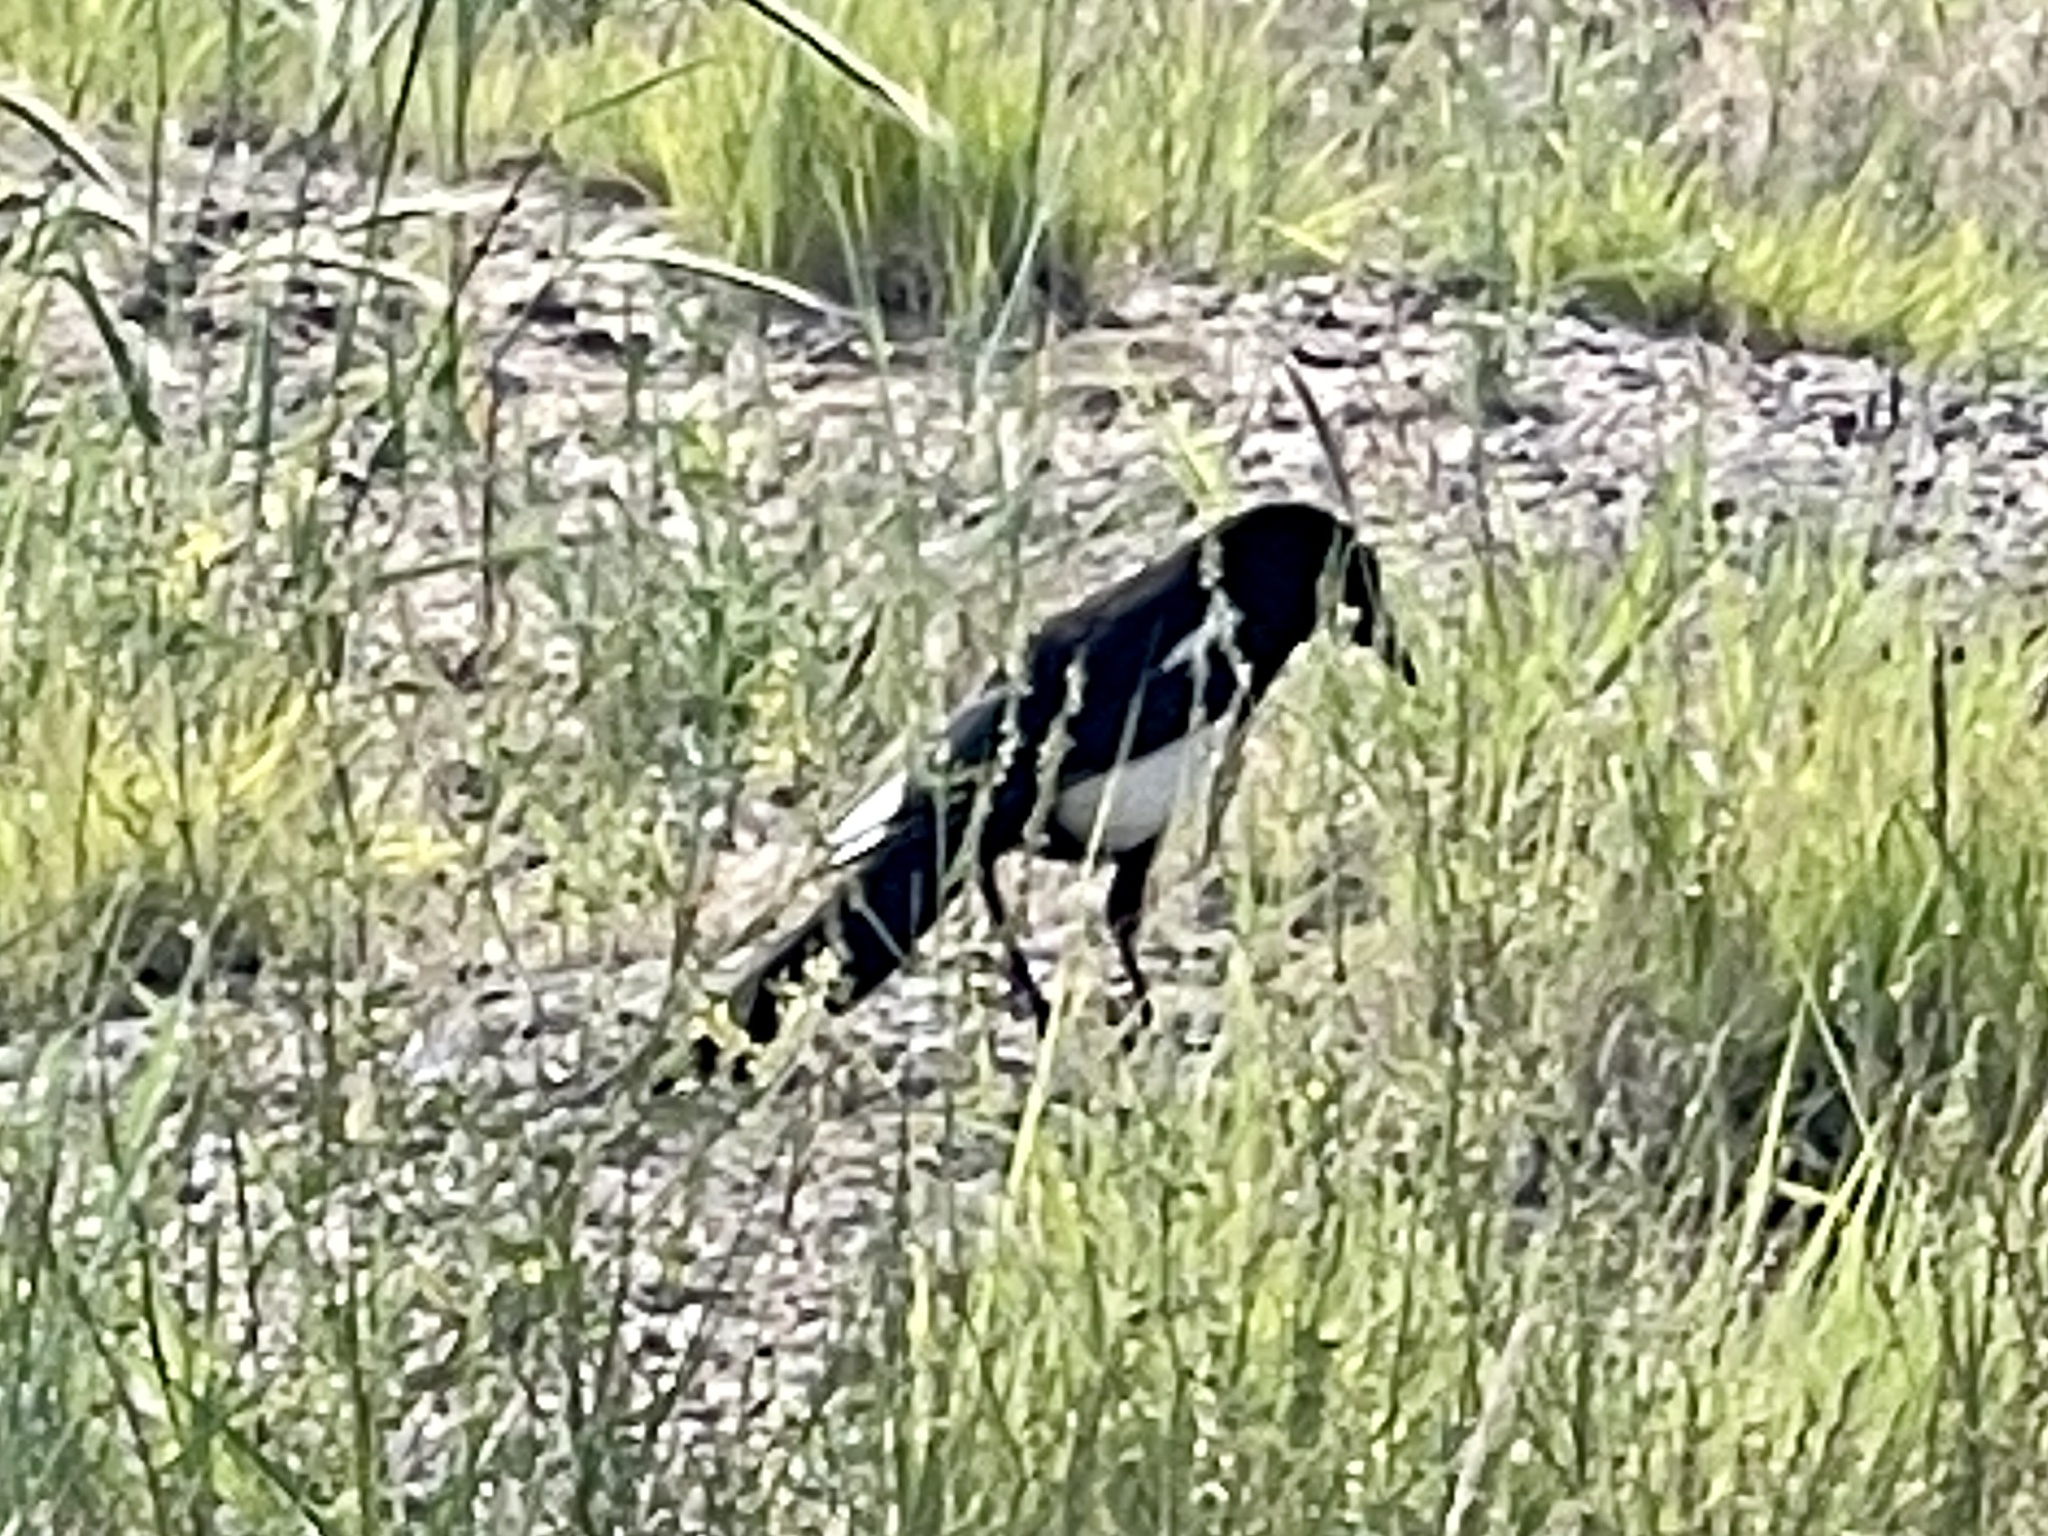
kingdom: Animalia
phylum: Chordata
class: Aves
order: Passeriformes
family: Corvidae
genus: Pica
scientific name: Pica hudsonia
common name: Black-billed magpie
